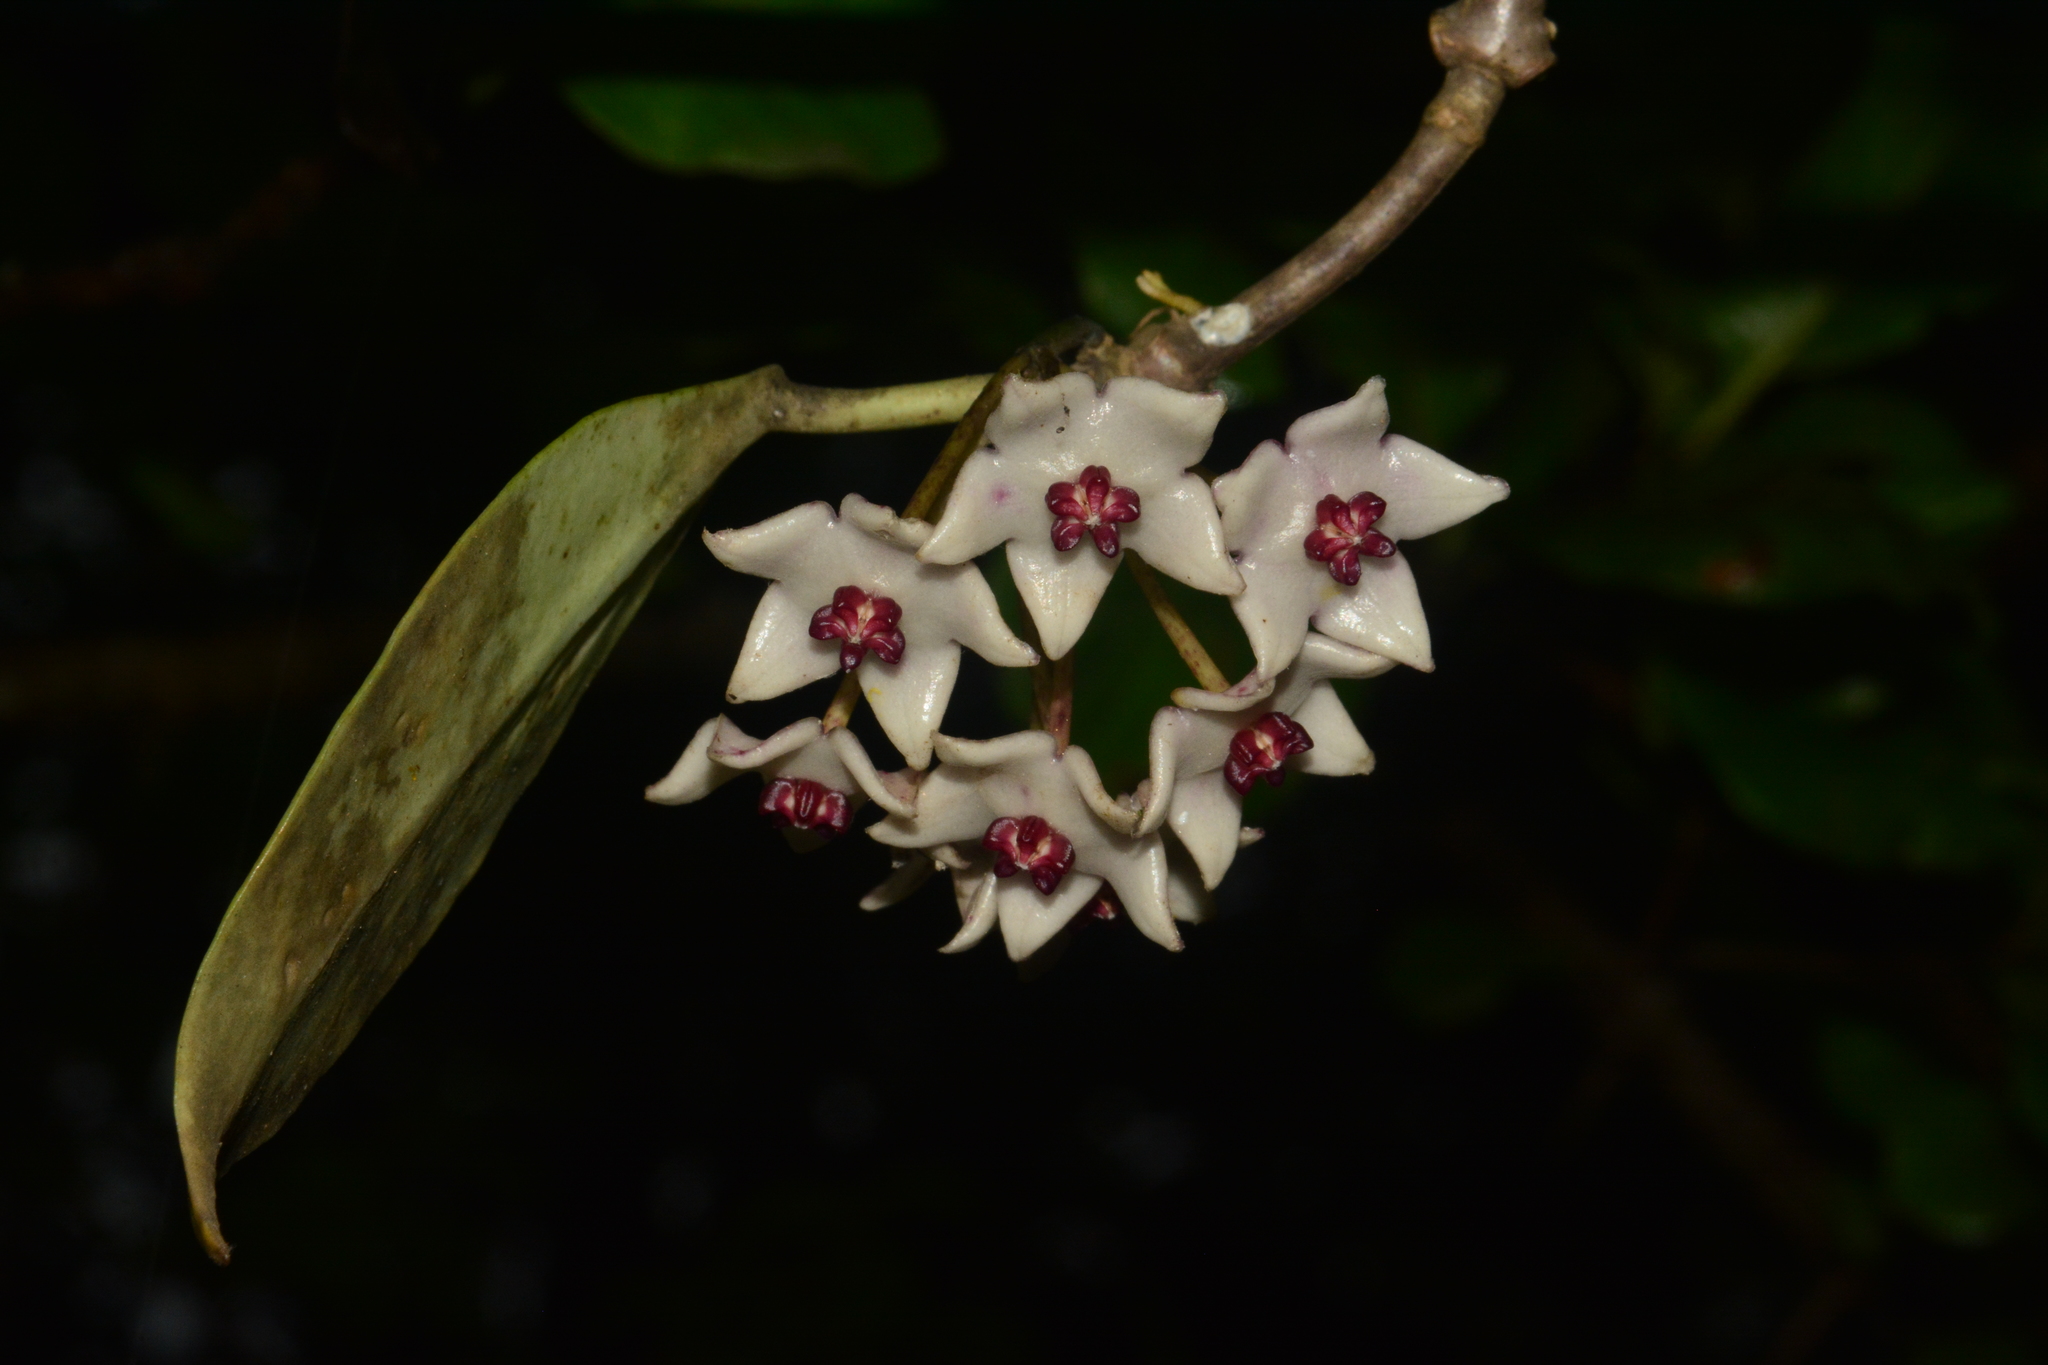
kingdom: Plantae
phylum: Tracheophyta
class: Magnoliopsida
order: Gentianales
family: Apocynaceae
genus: Hoya
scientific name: Hoya wightii
